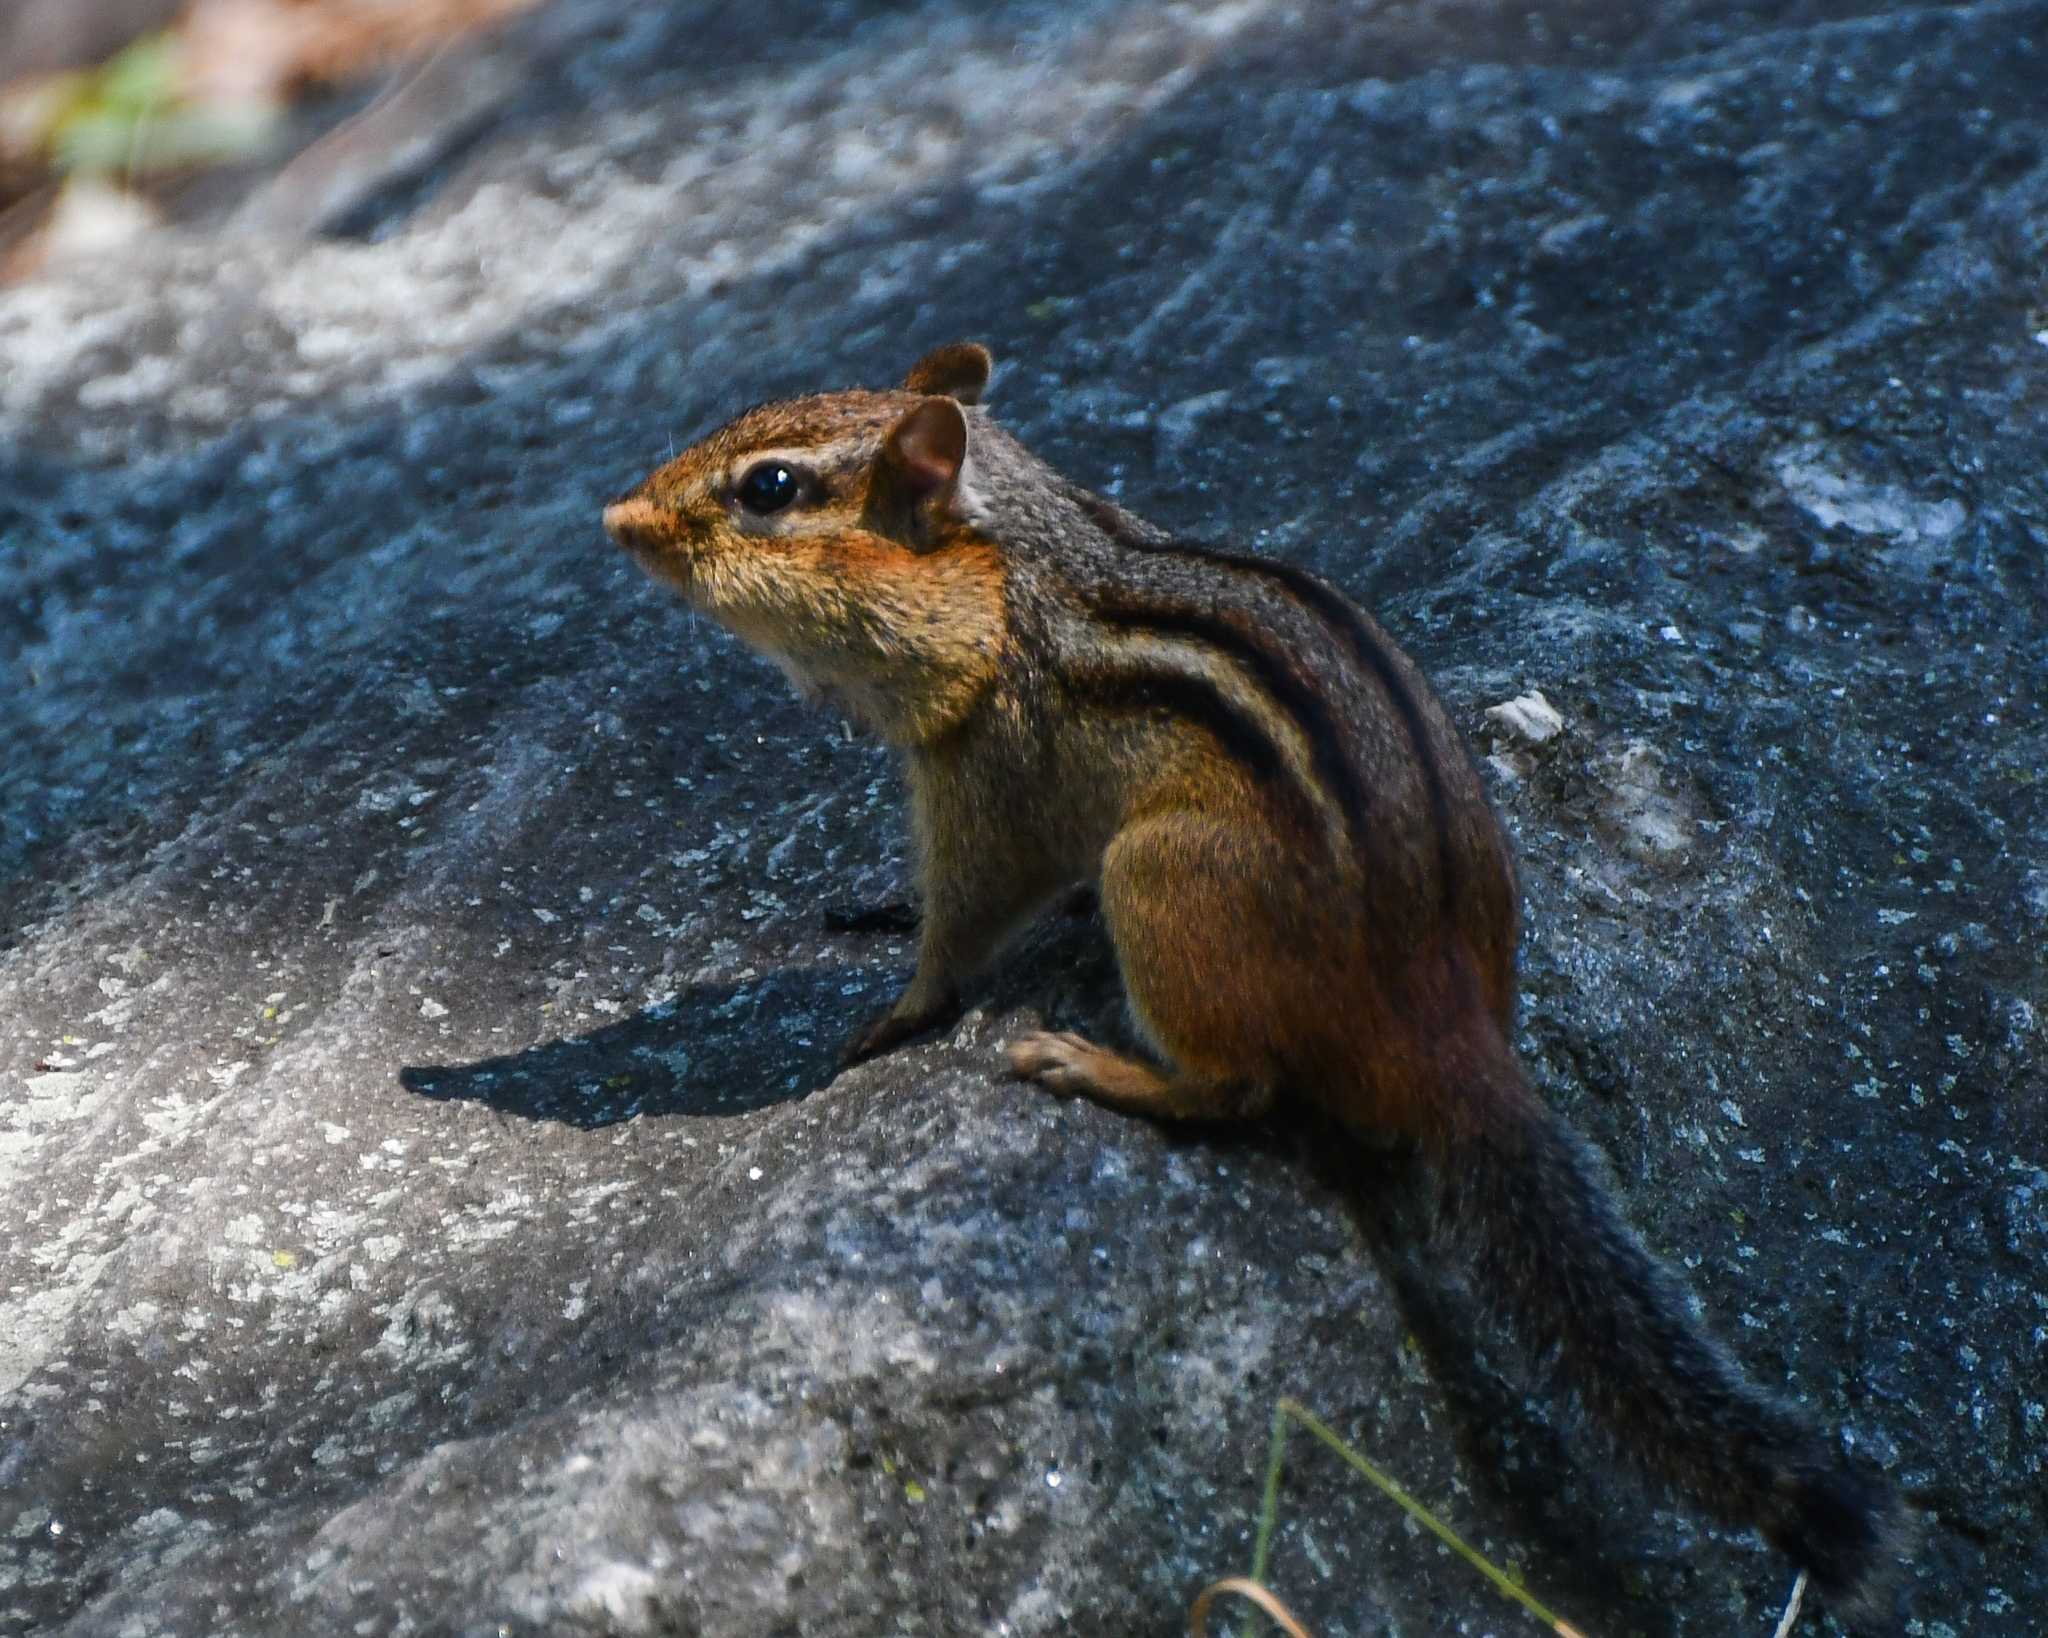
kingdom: Animalia
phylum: Chordata
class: Mammalia
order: Rodentia
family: Sciuridae
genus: Tamias
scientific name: Tamias striatus
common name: Eastern chipmunk
